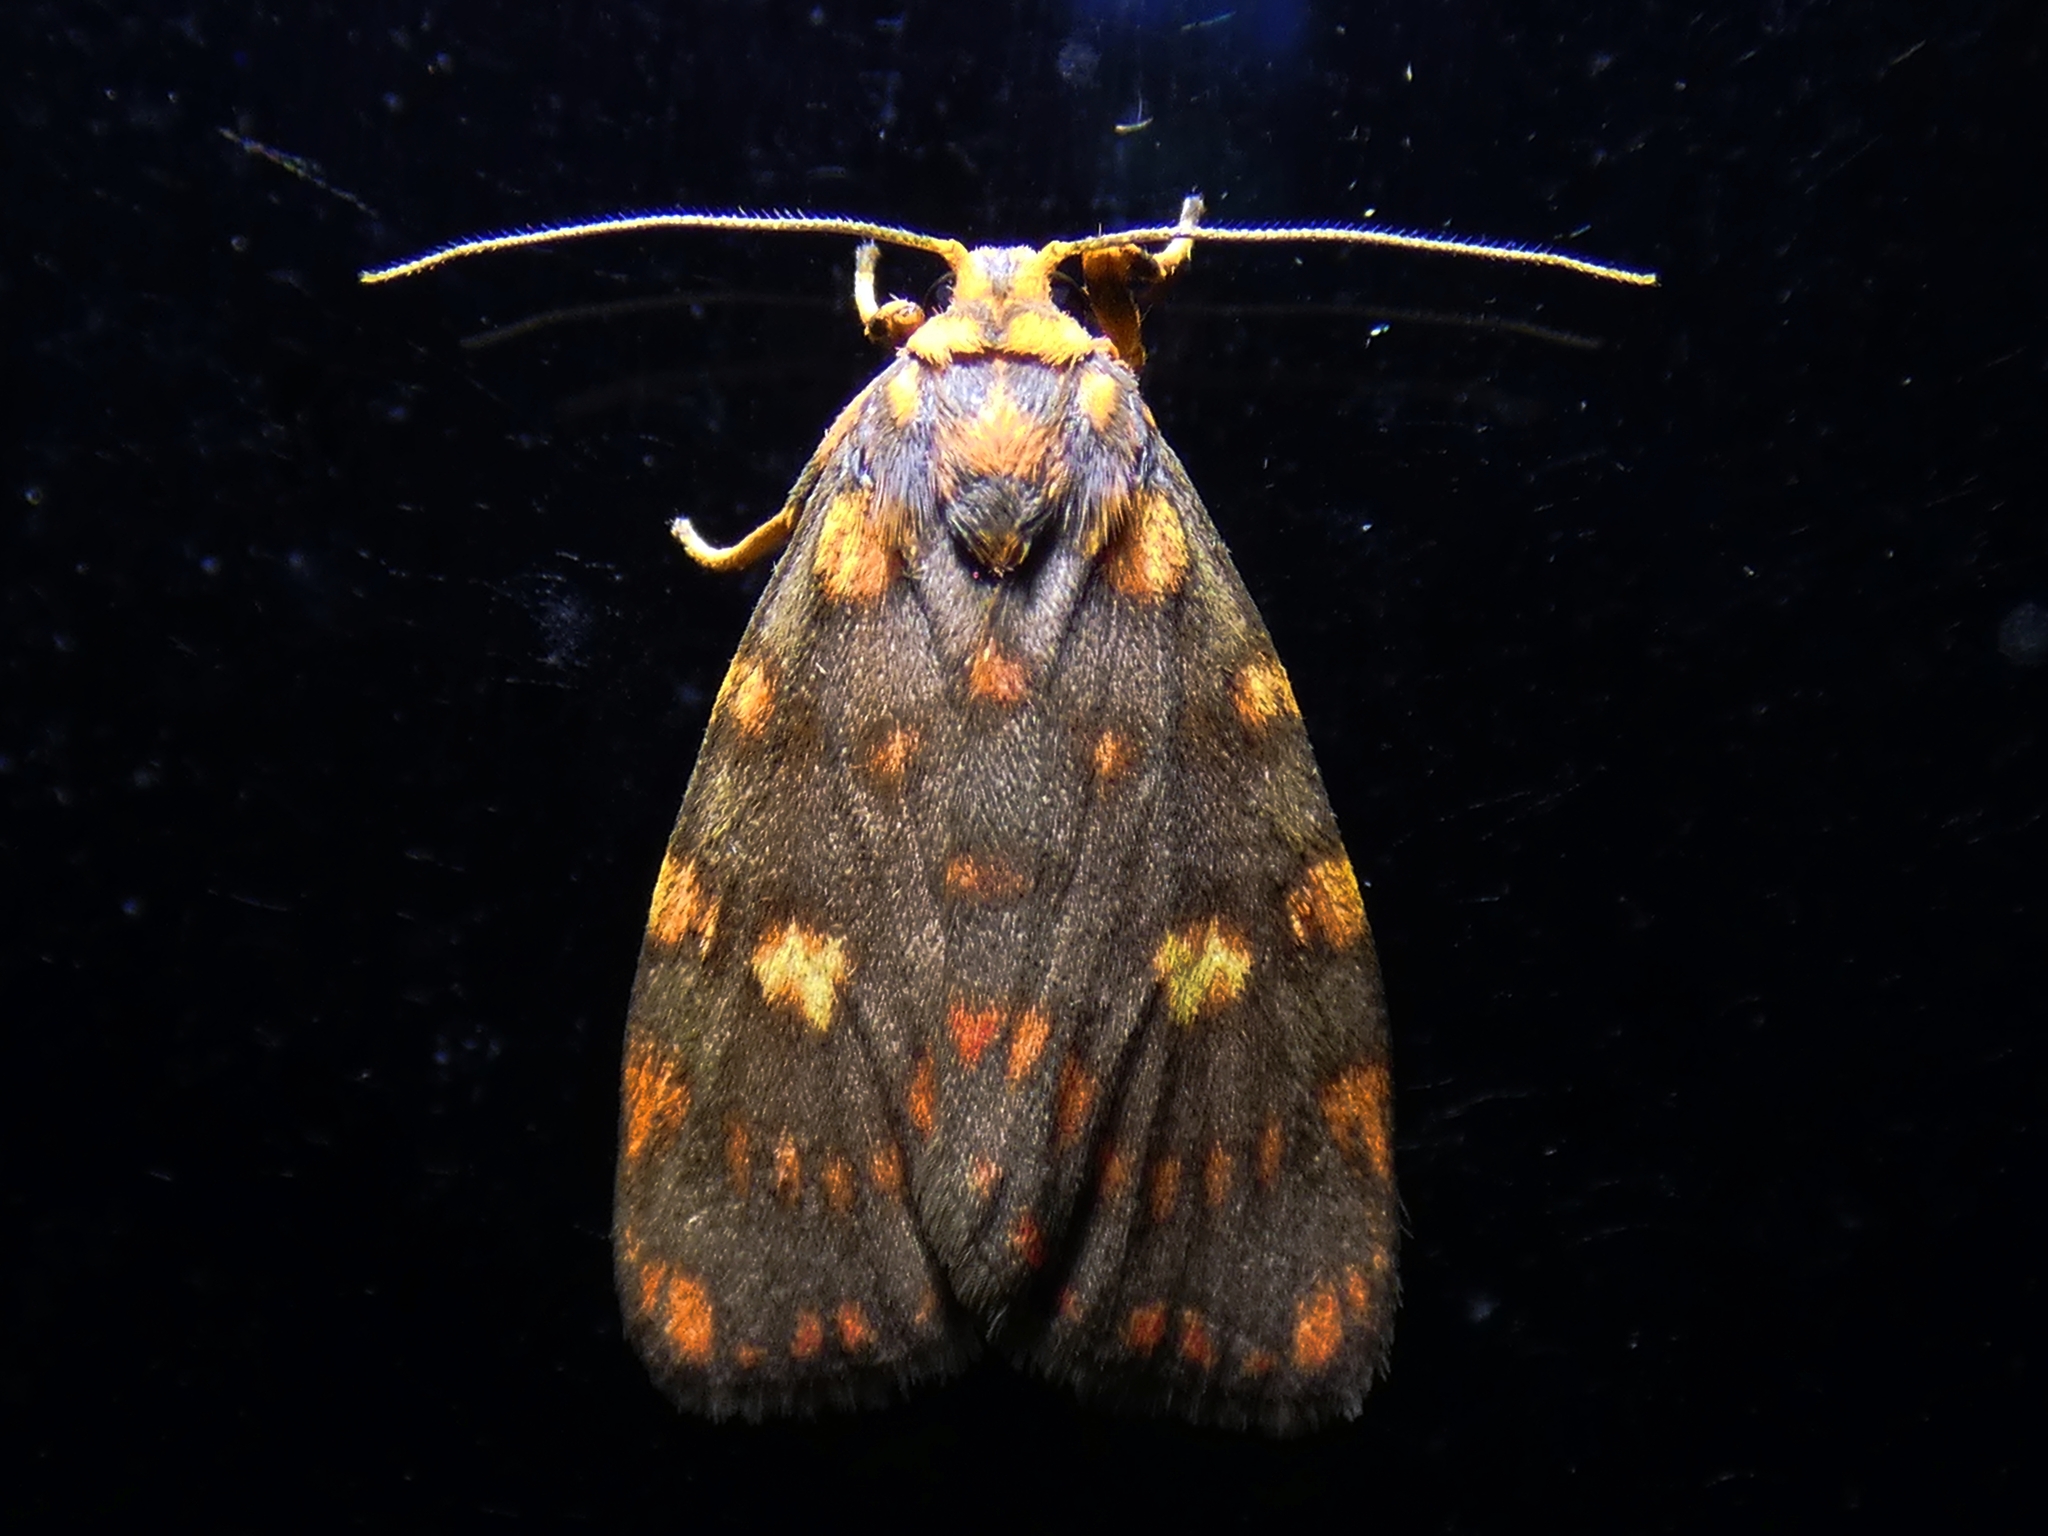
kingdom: Animalia
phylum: Arthropoda
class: Insecta
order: Lepidoptera
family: Erebidae
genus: Cyme
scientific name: Cyme reticulata
